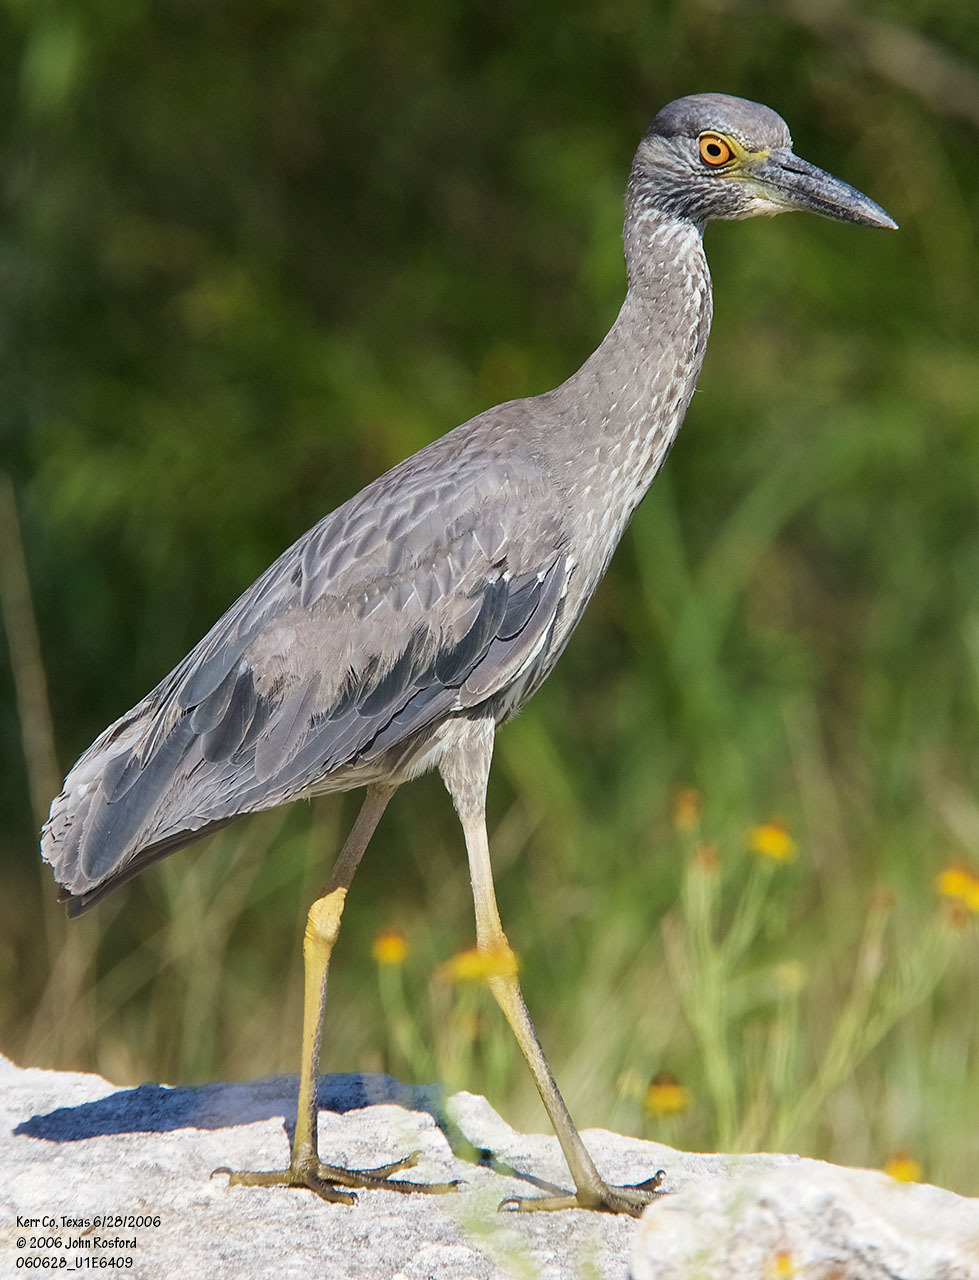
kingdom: Animalia
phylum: Chordata
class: Aves
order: Pelecaniformes
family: Ardeidae
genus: Nyctanassa
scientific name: Nyctanassa violacea
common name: Yellow-crowned night heron
